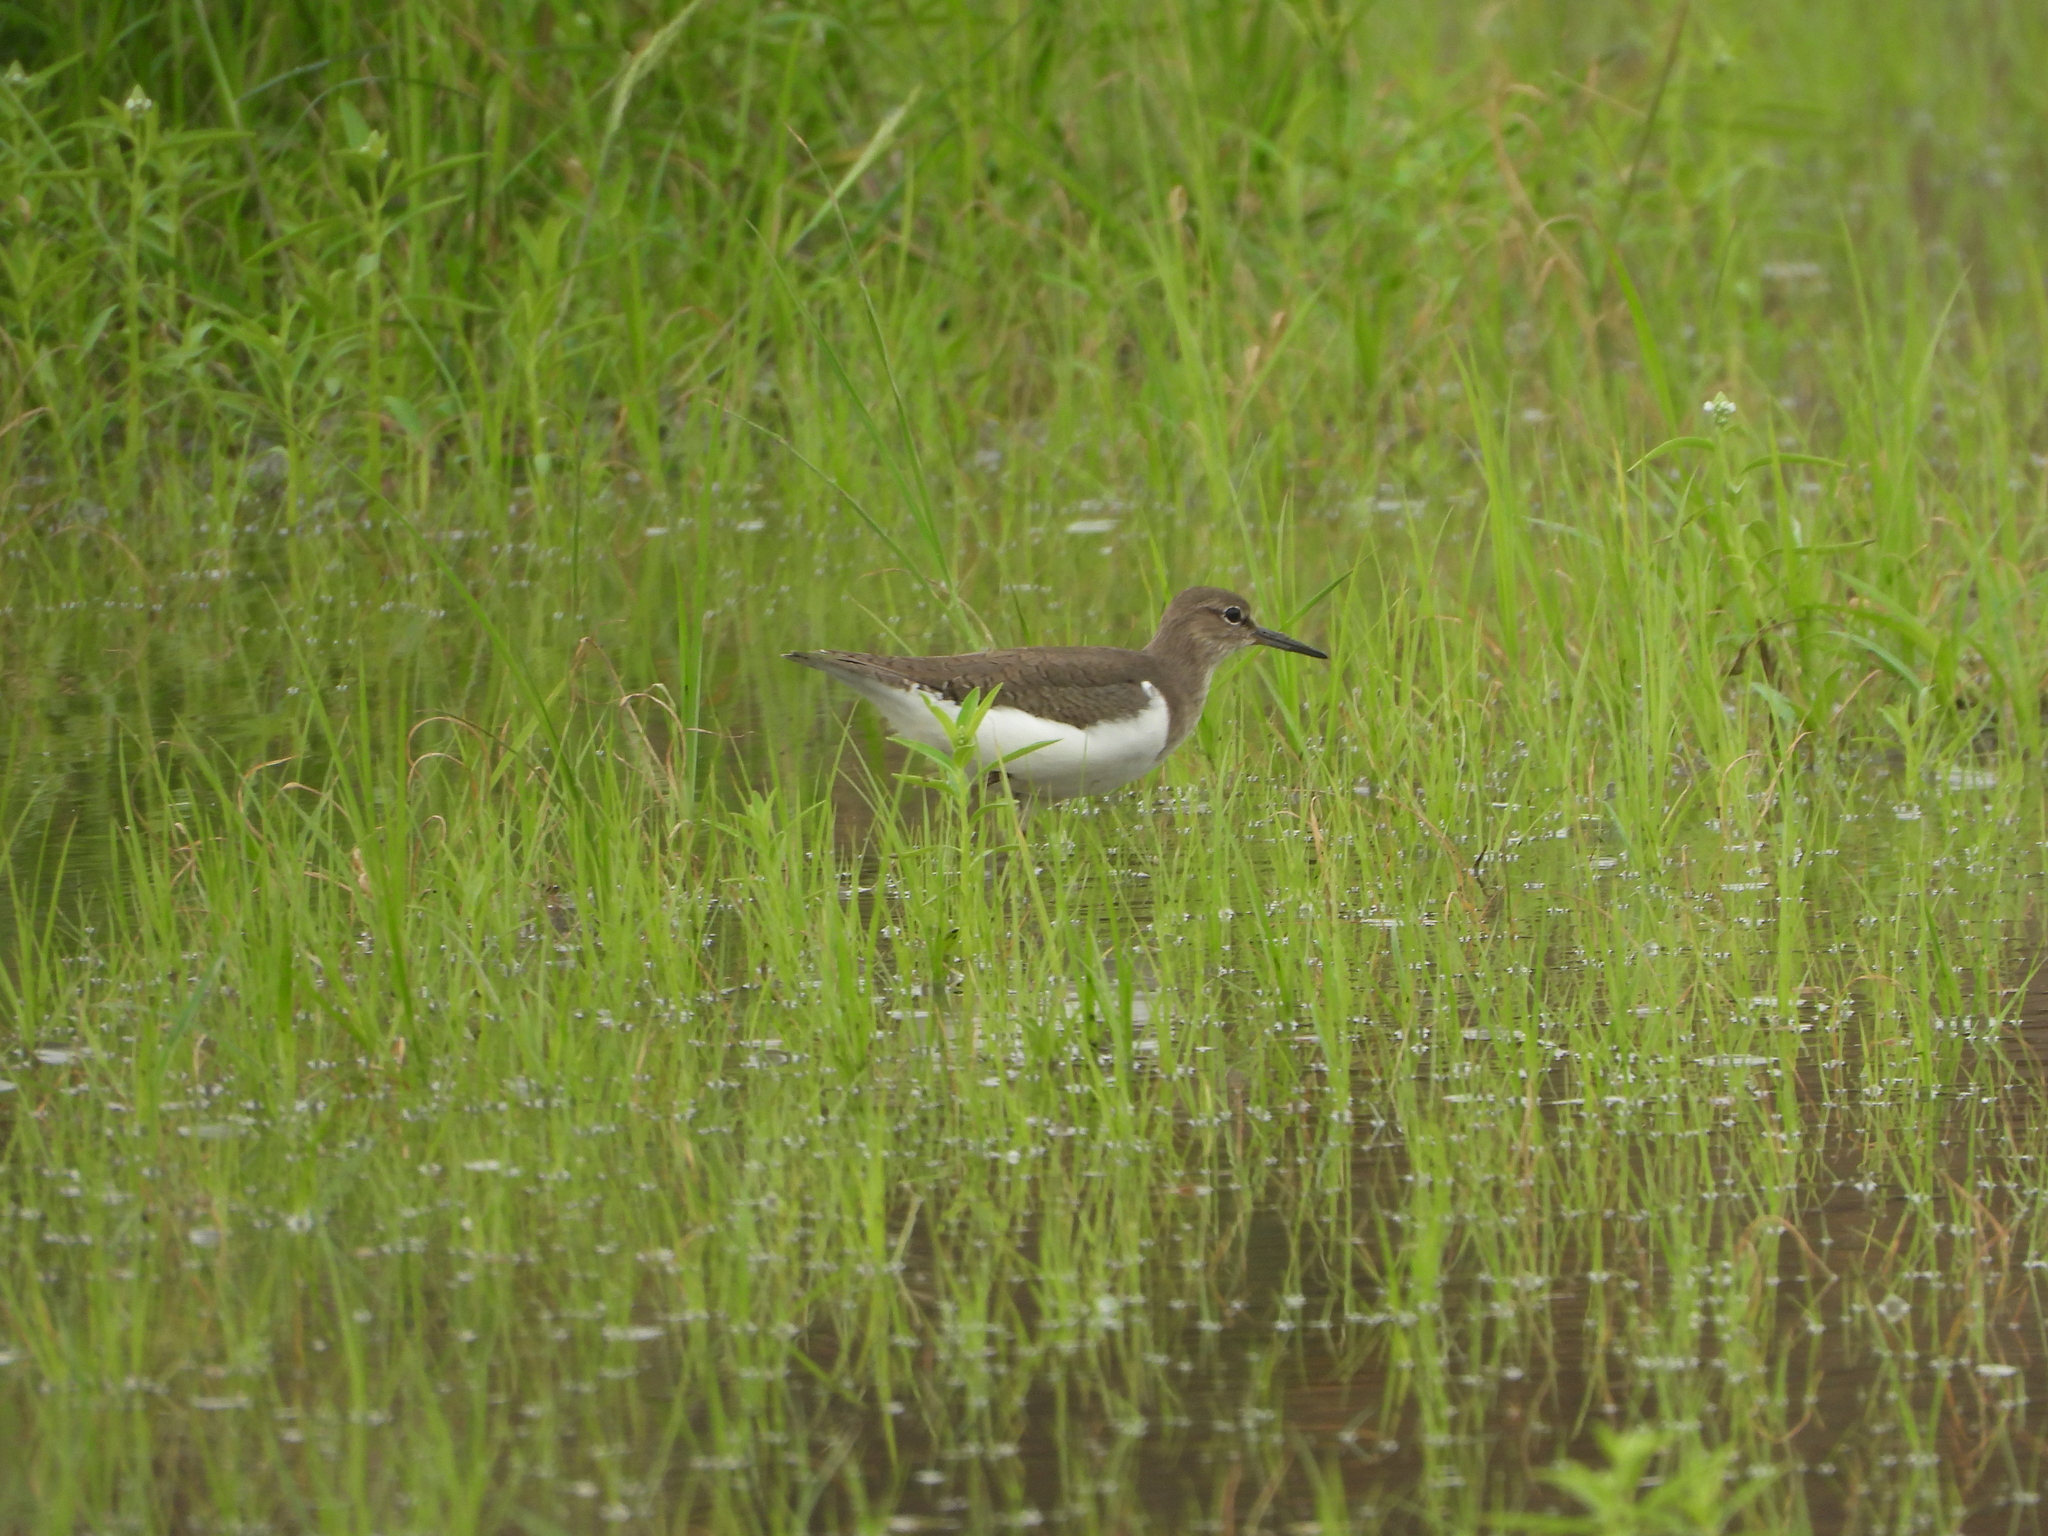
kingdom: Animalia
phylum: Chordata
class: Aves
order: Charadriiformes
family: Scolopacidae
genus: Actitis
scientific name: Actitis hypoleucos
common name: Common sandpiper
